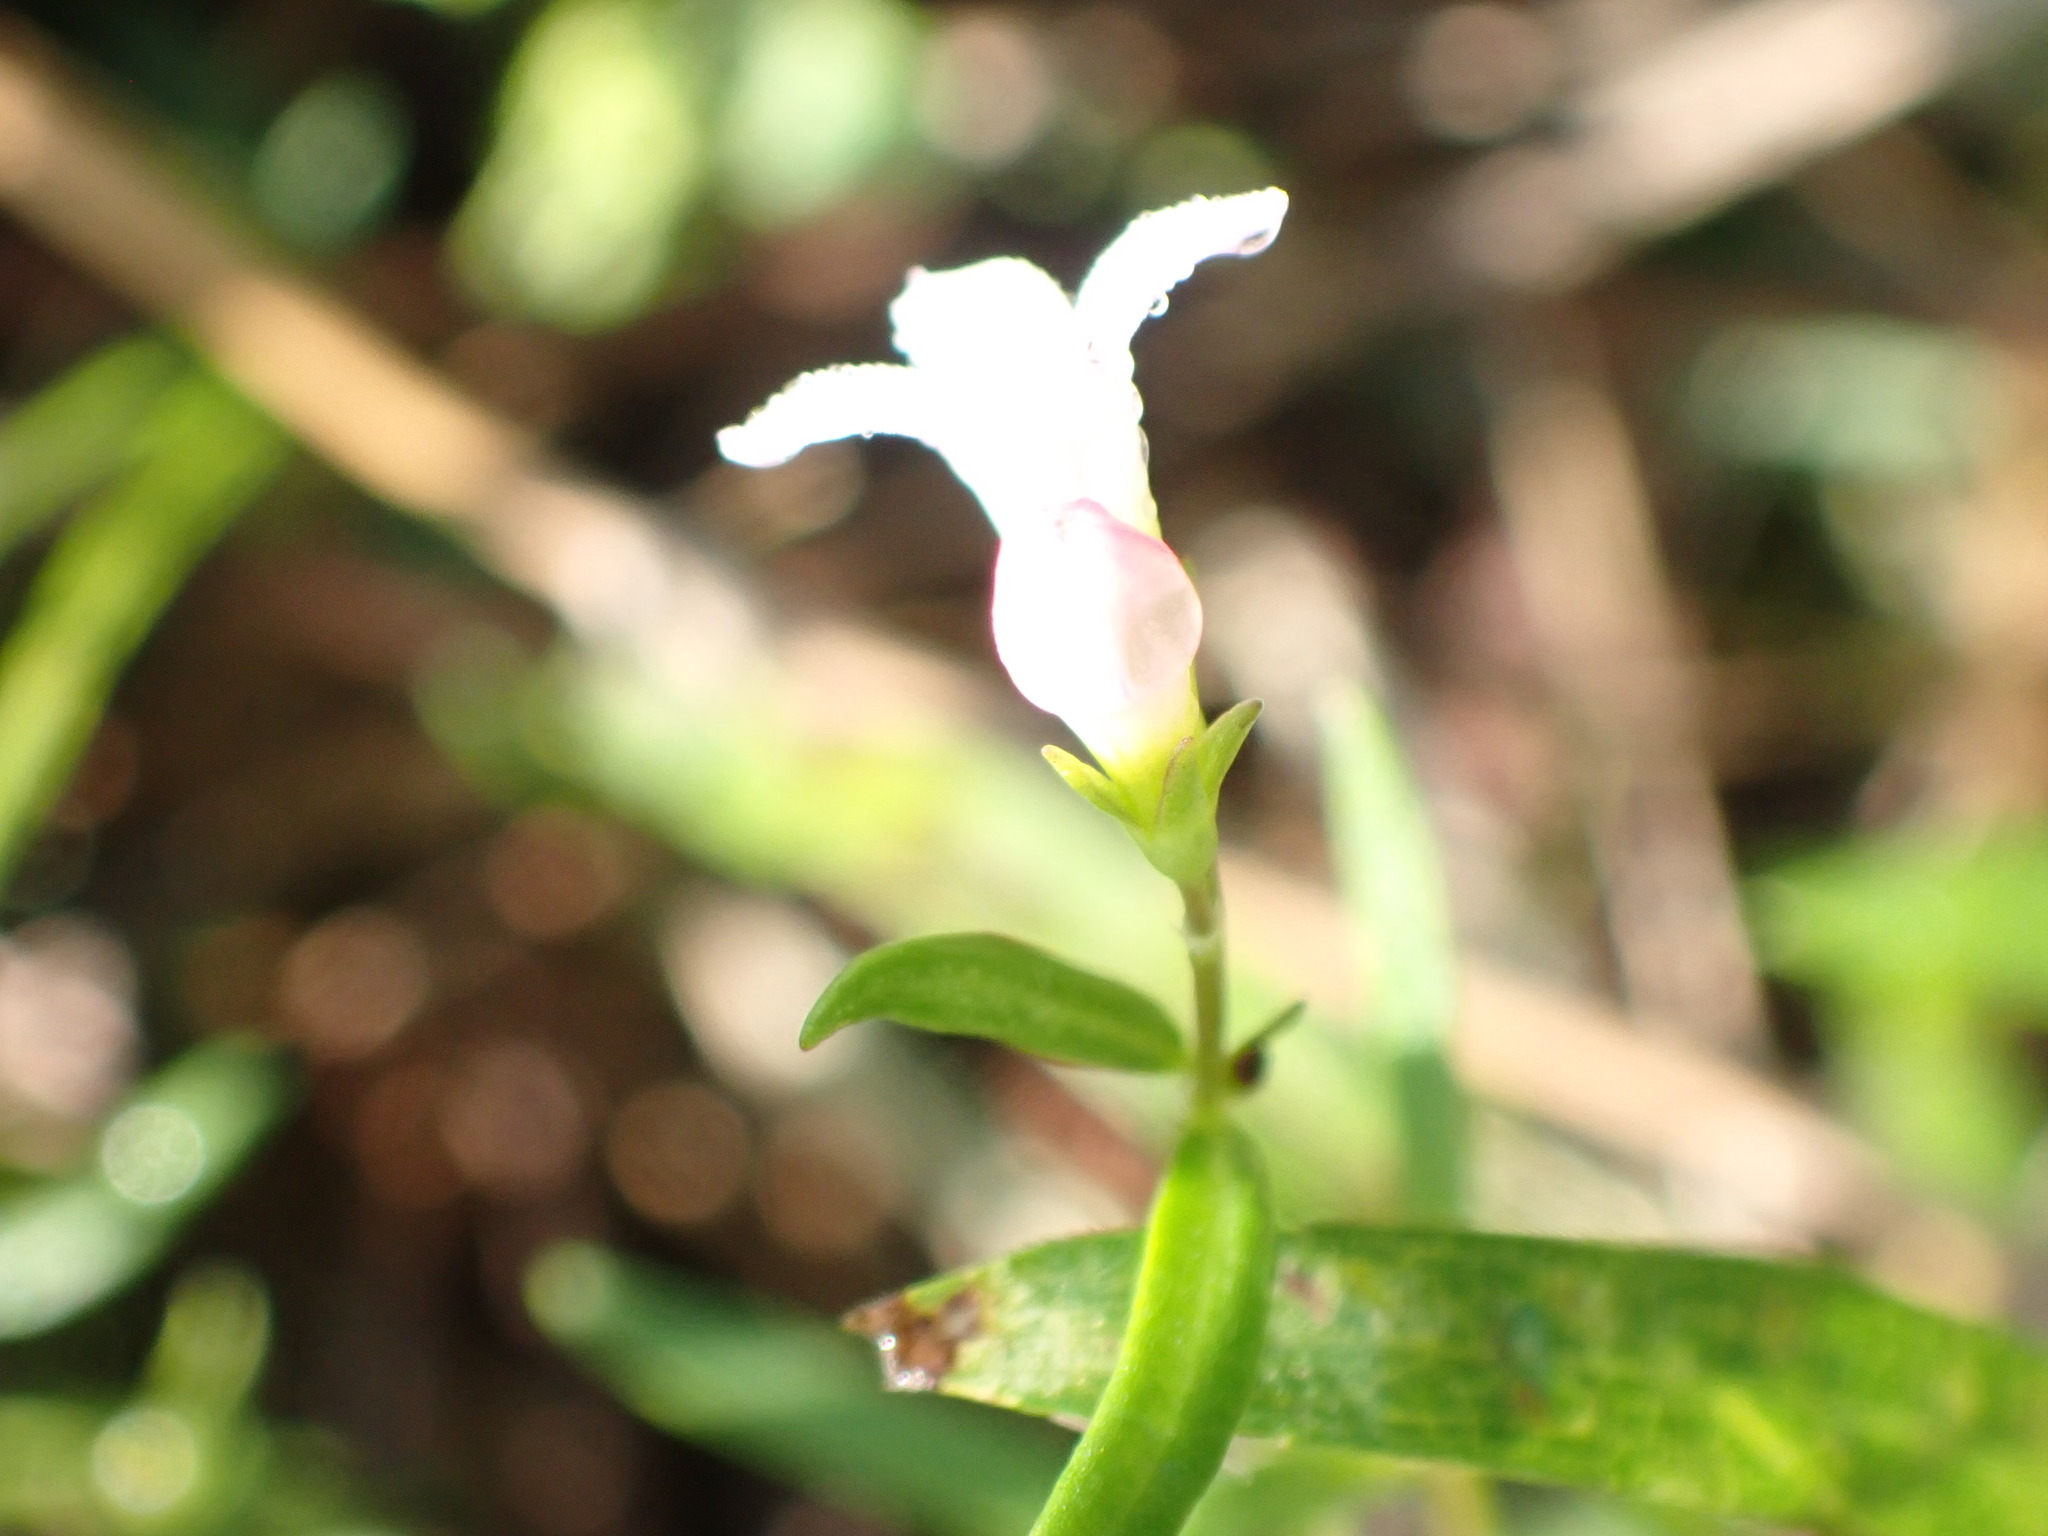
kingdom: Plantae
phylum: Tracheophyta
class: Magnoliopsida
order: Gentianales
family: Rubiaceae
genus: Houstonia
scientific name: Houstonia longifolia
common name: Long-leaved bluets
